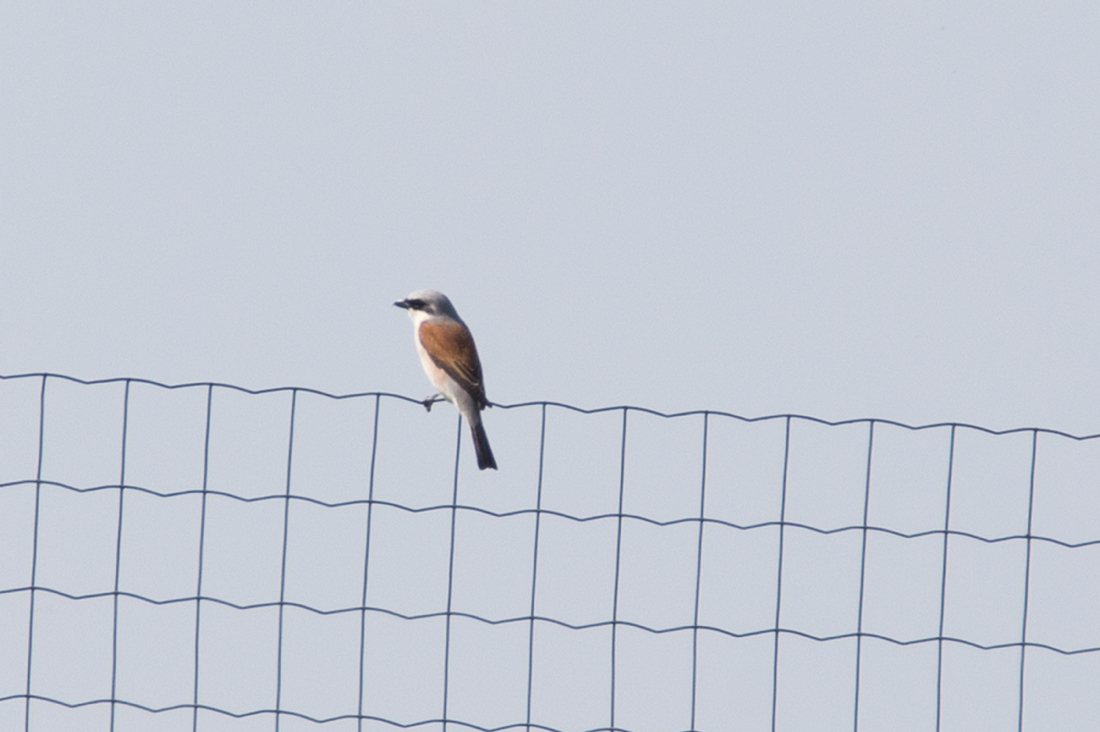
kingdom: Animalia
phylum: Chordata
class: Aves
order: Passeriformes
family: Laniidae
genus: Lanius
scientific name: Lanius collurio
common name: Red-backed shrike
